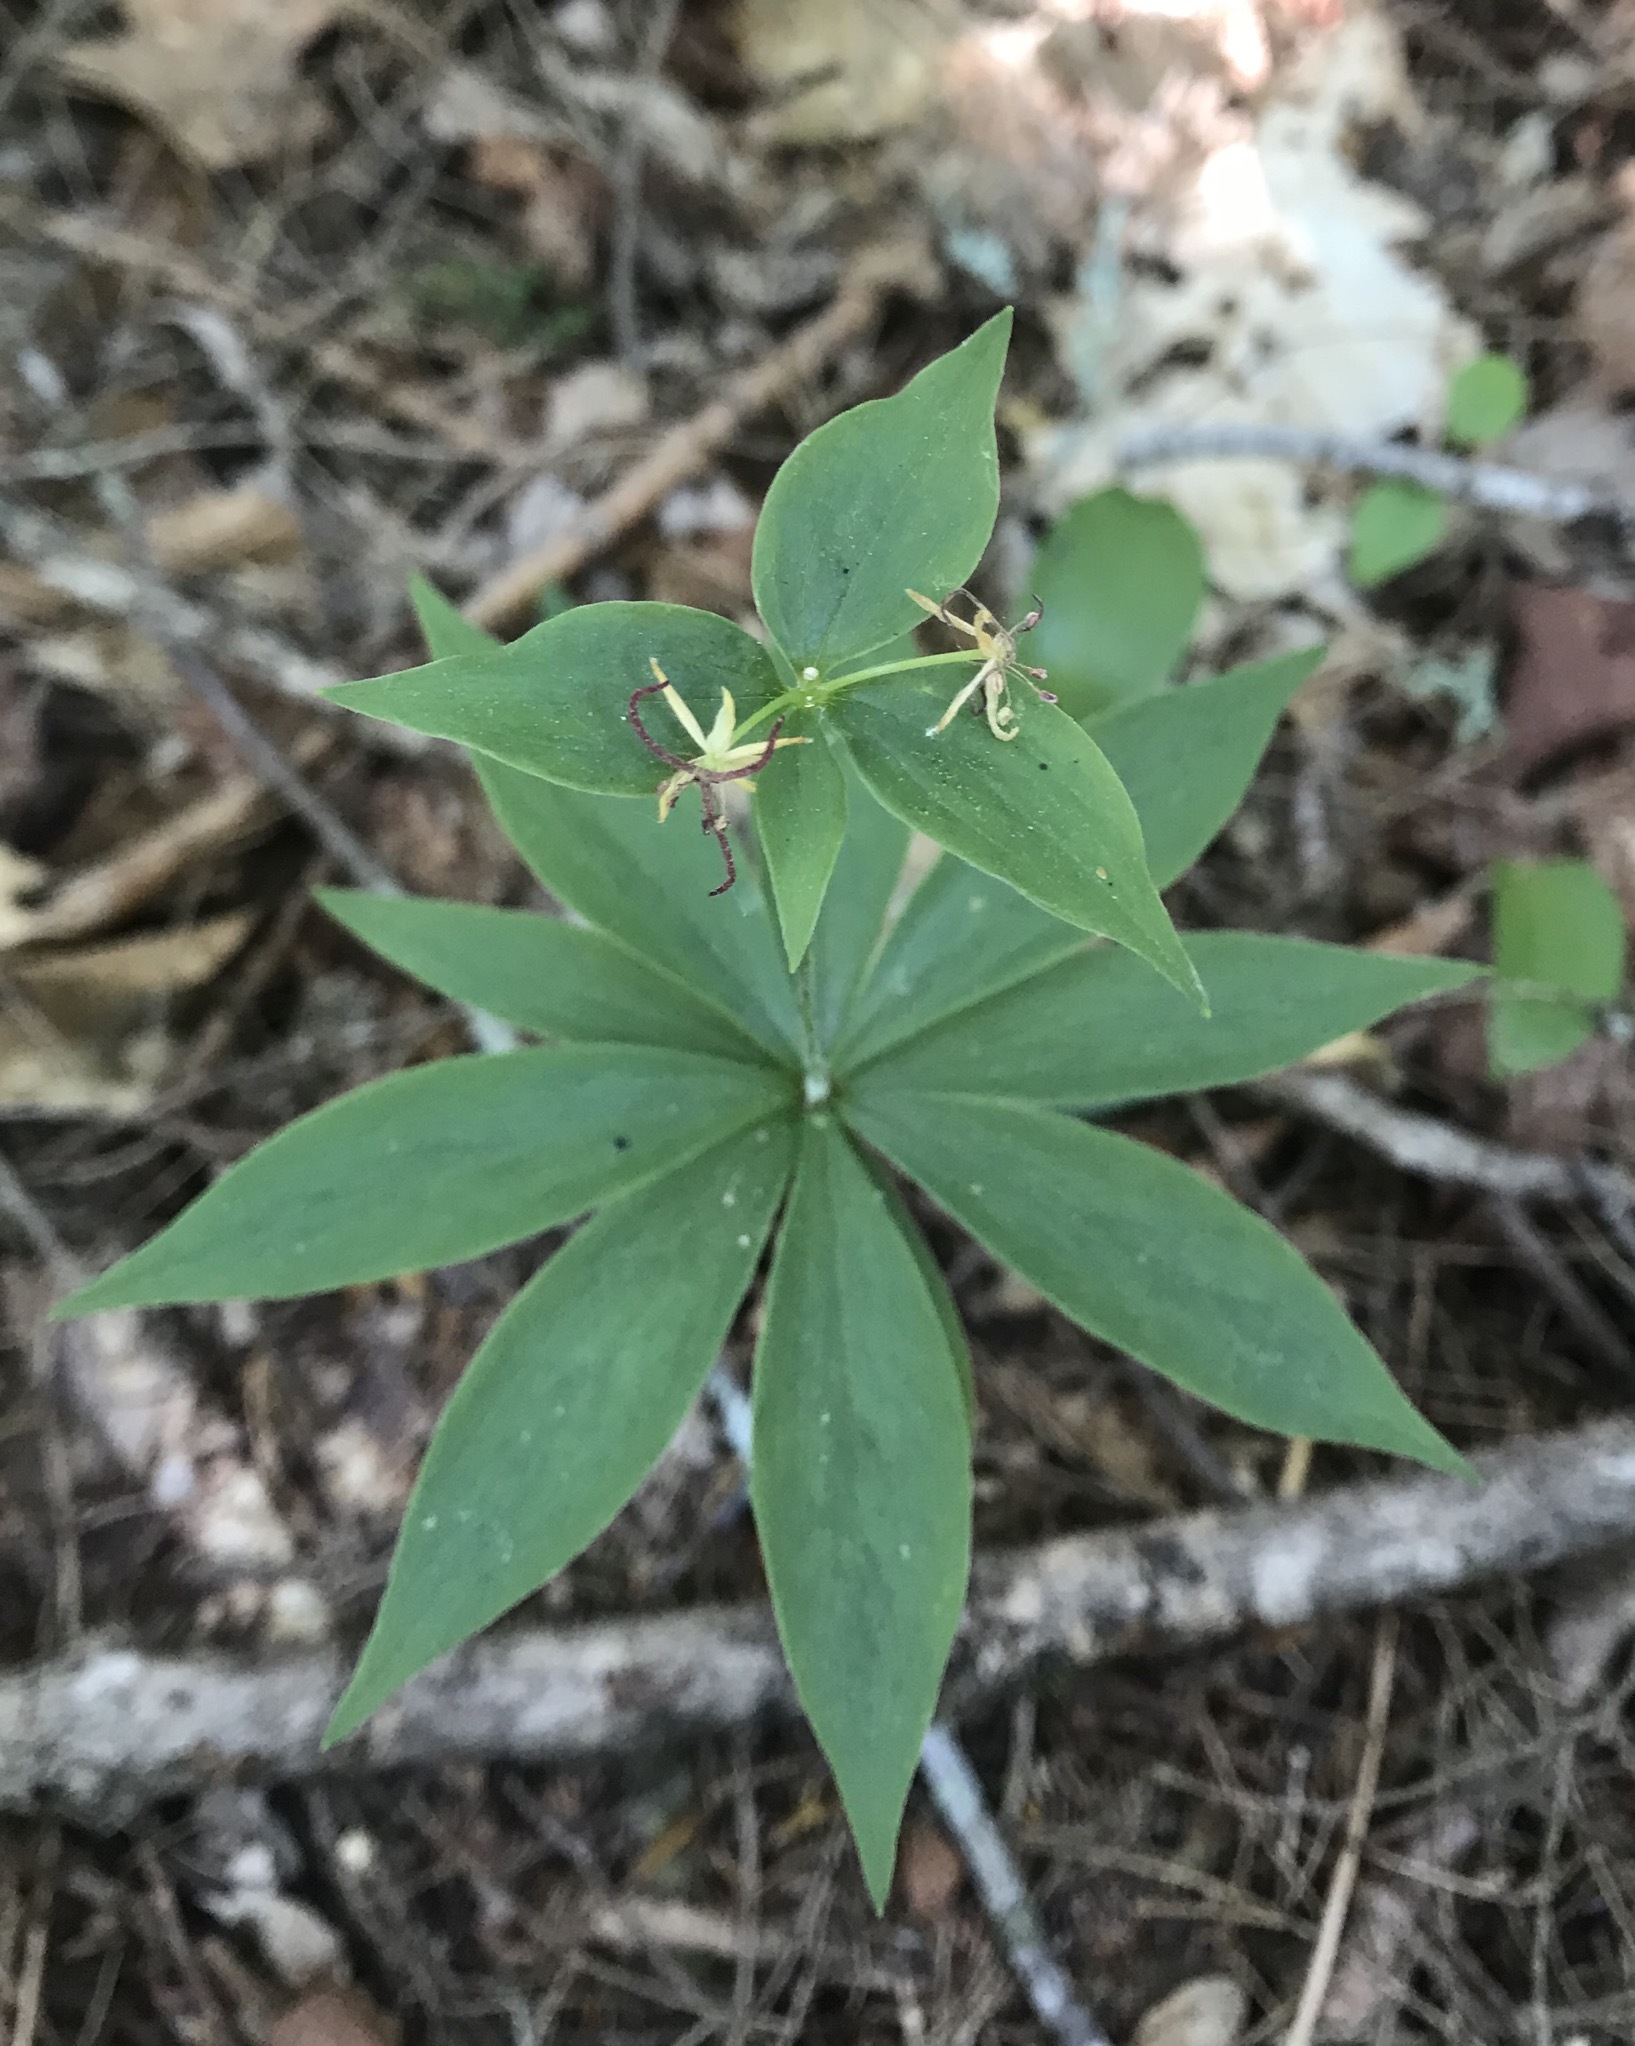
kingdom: Plantae
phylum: Tracheophyta
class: Liliopsida
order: Liliales
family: Liliaceae
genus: Medeola
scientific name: Medeola virginiana
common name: Indian cucumber-root
